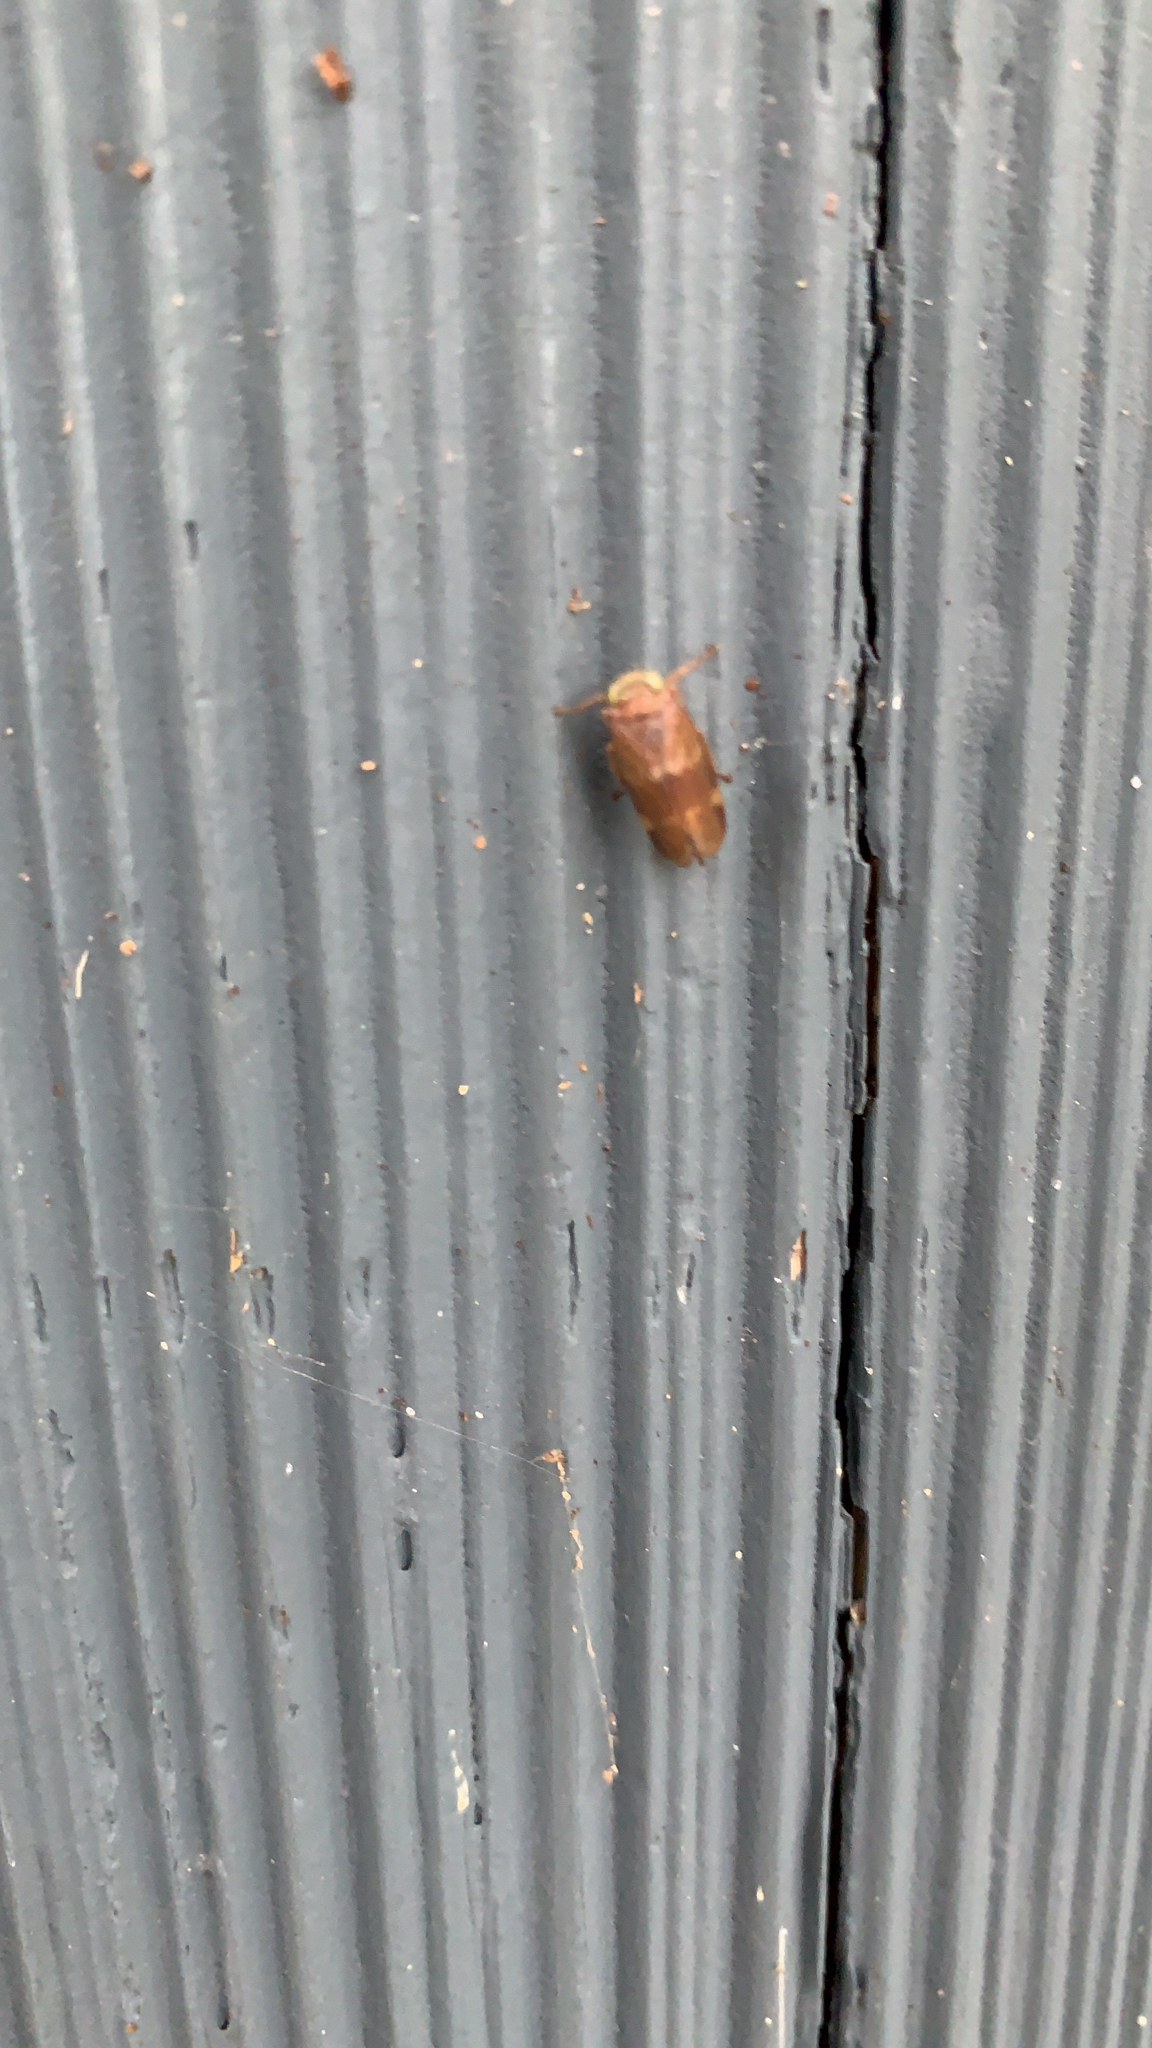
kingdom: Animalia
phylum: Arthropoda
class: Insecta
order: Hemiptera
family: Cicadellidae
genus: Jikradia
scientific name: Jikradia olitoria
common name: Coppery leafhopper
